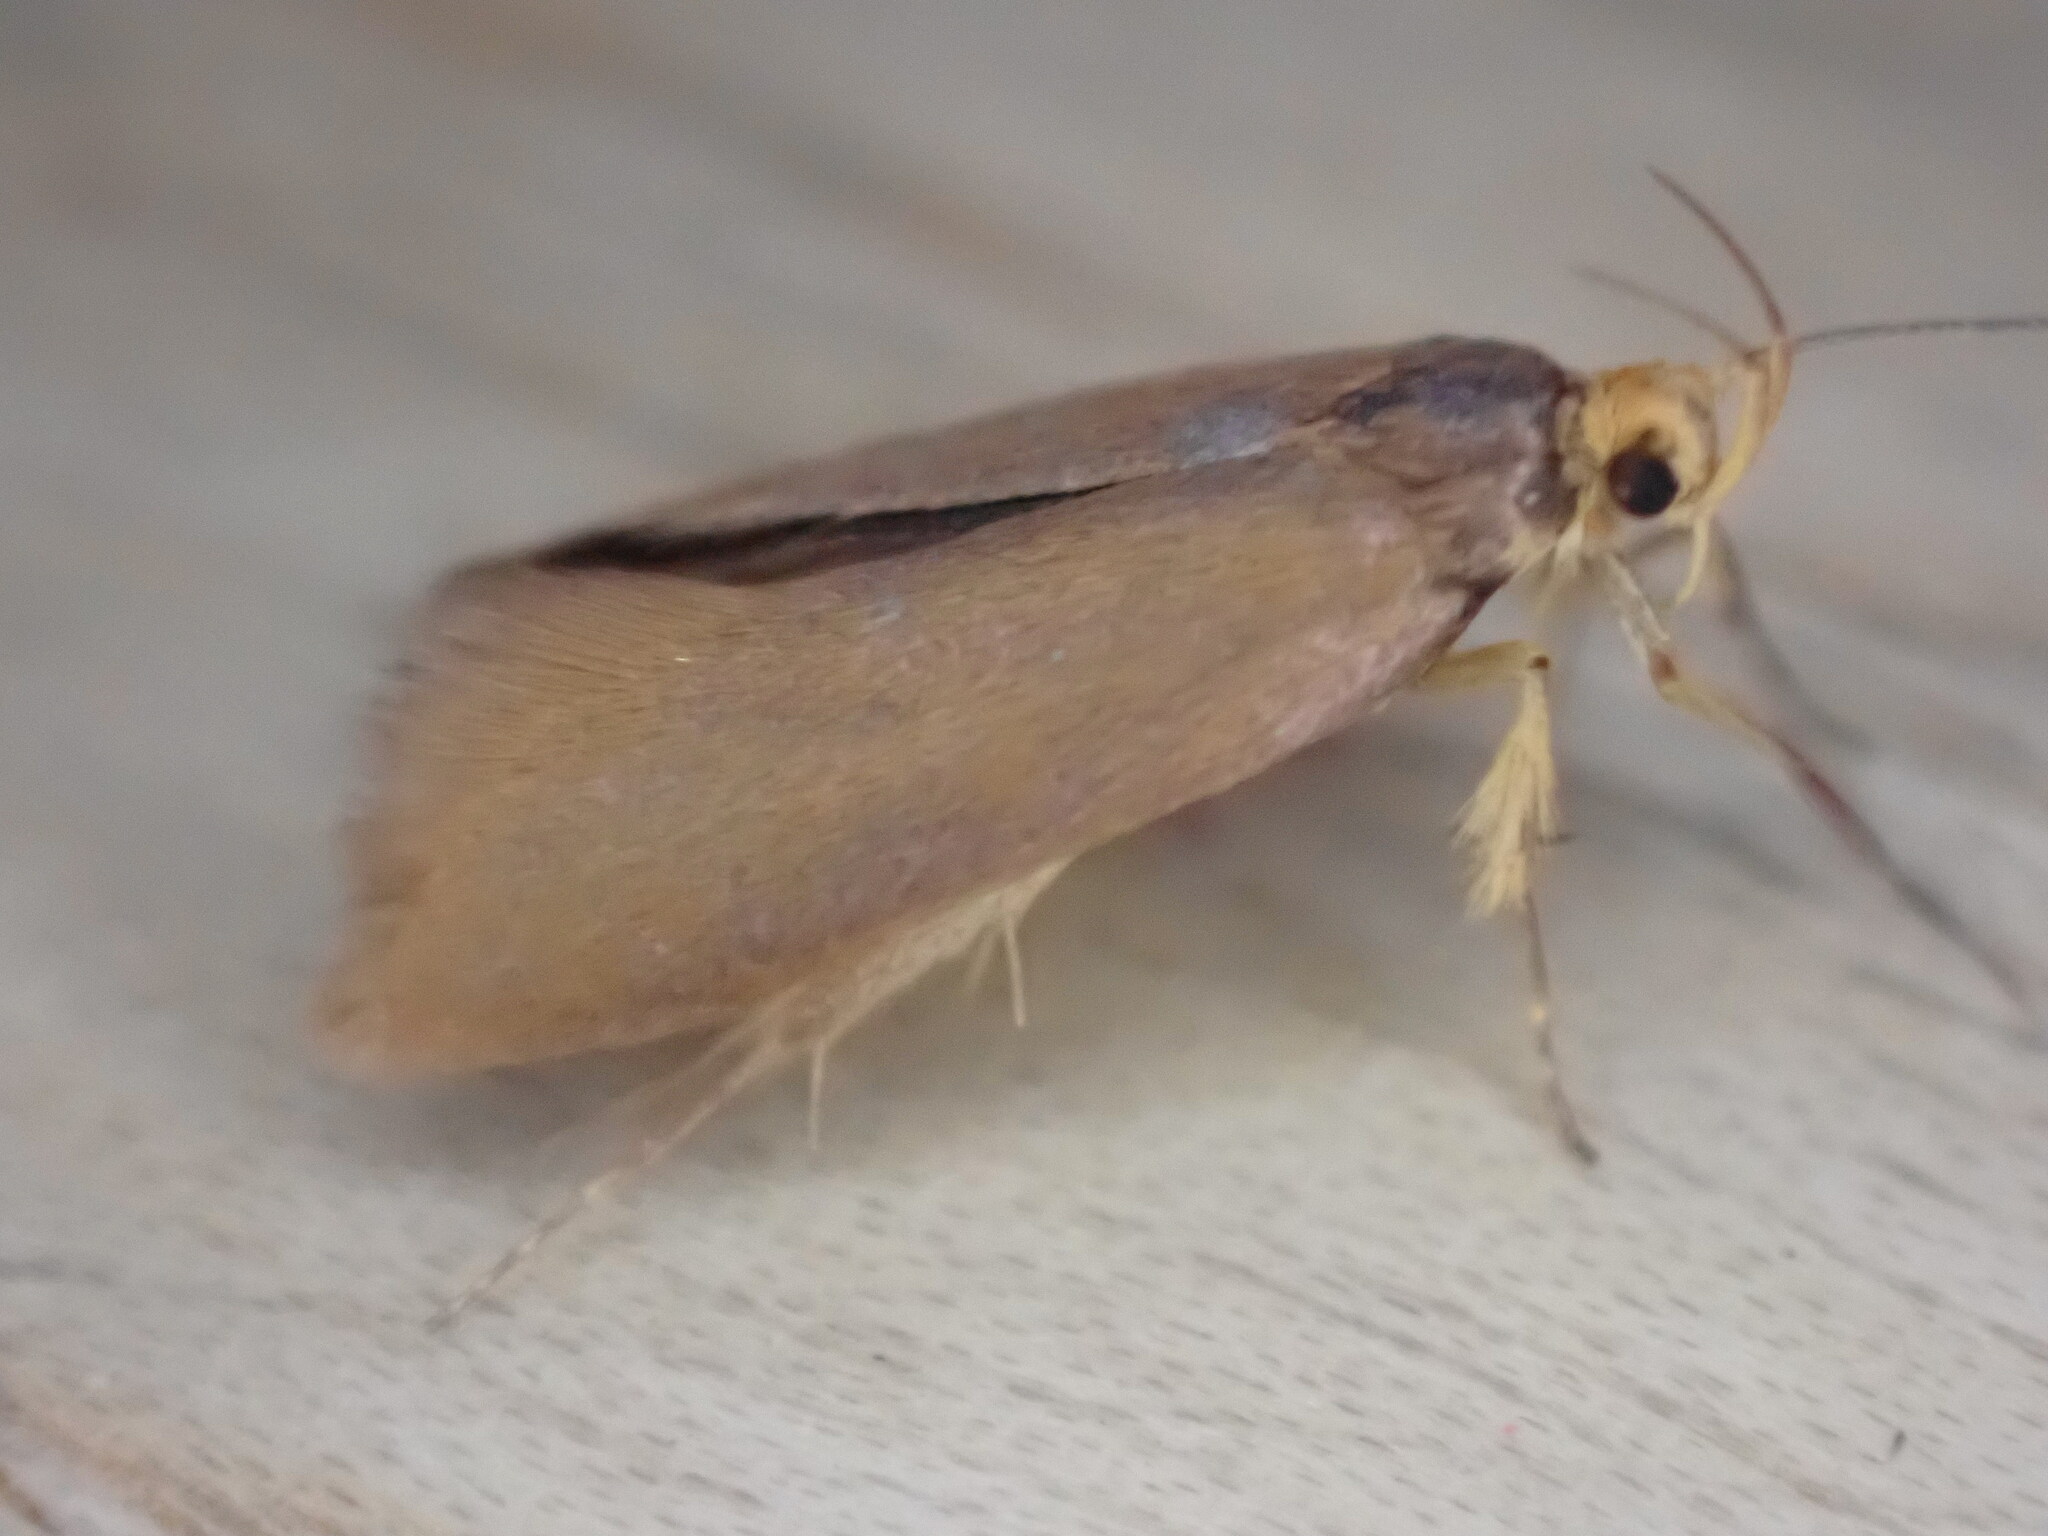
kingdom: Animalia
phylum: Arthropoda
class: Insecta
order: Lepidoptera
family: Oecophoridae
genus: Borkhausenia
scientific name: Borkhausenia Crassa unitella
